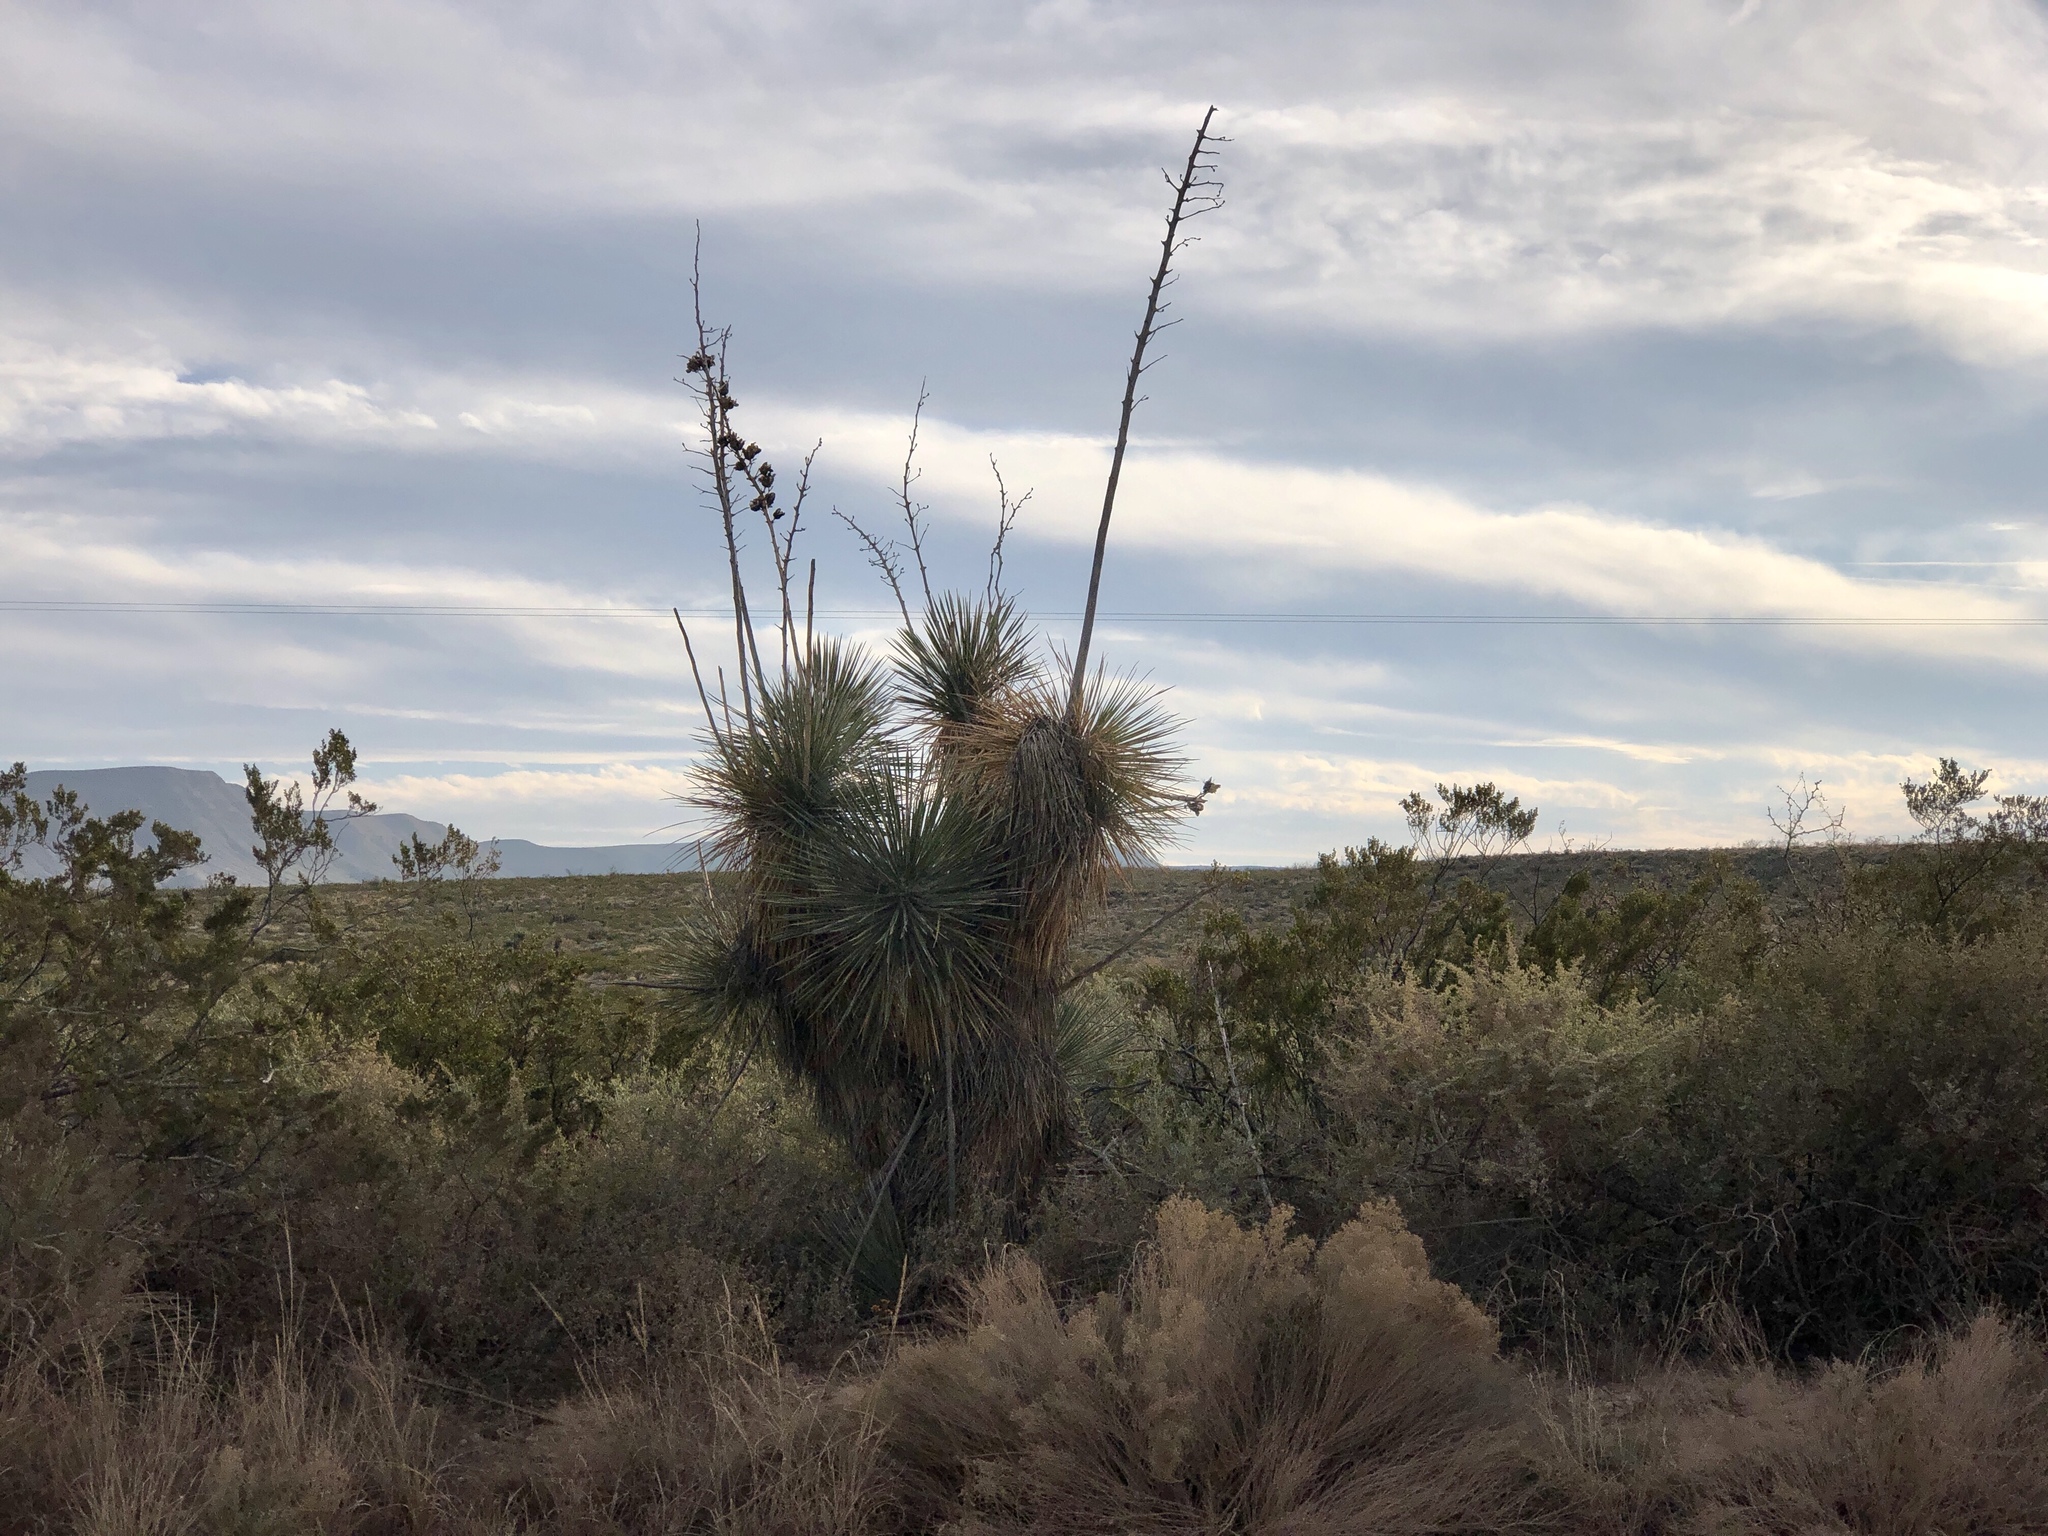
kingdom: Plantae
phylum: Tracheophyta
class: Liliopsida
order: Asparagales
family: Asparagaceae
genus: Yucca
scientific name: Yucca elata
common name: Palmella
